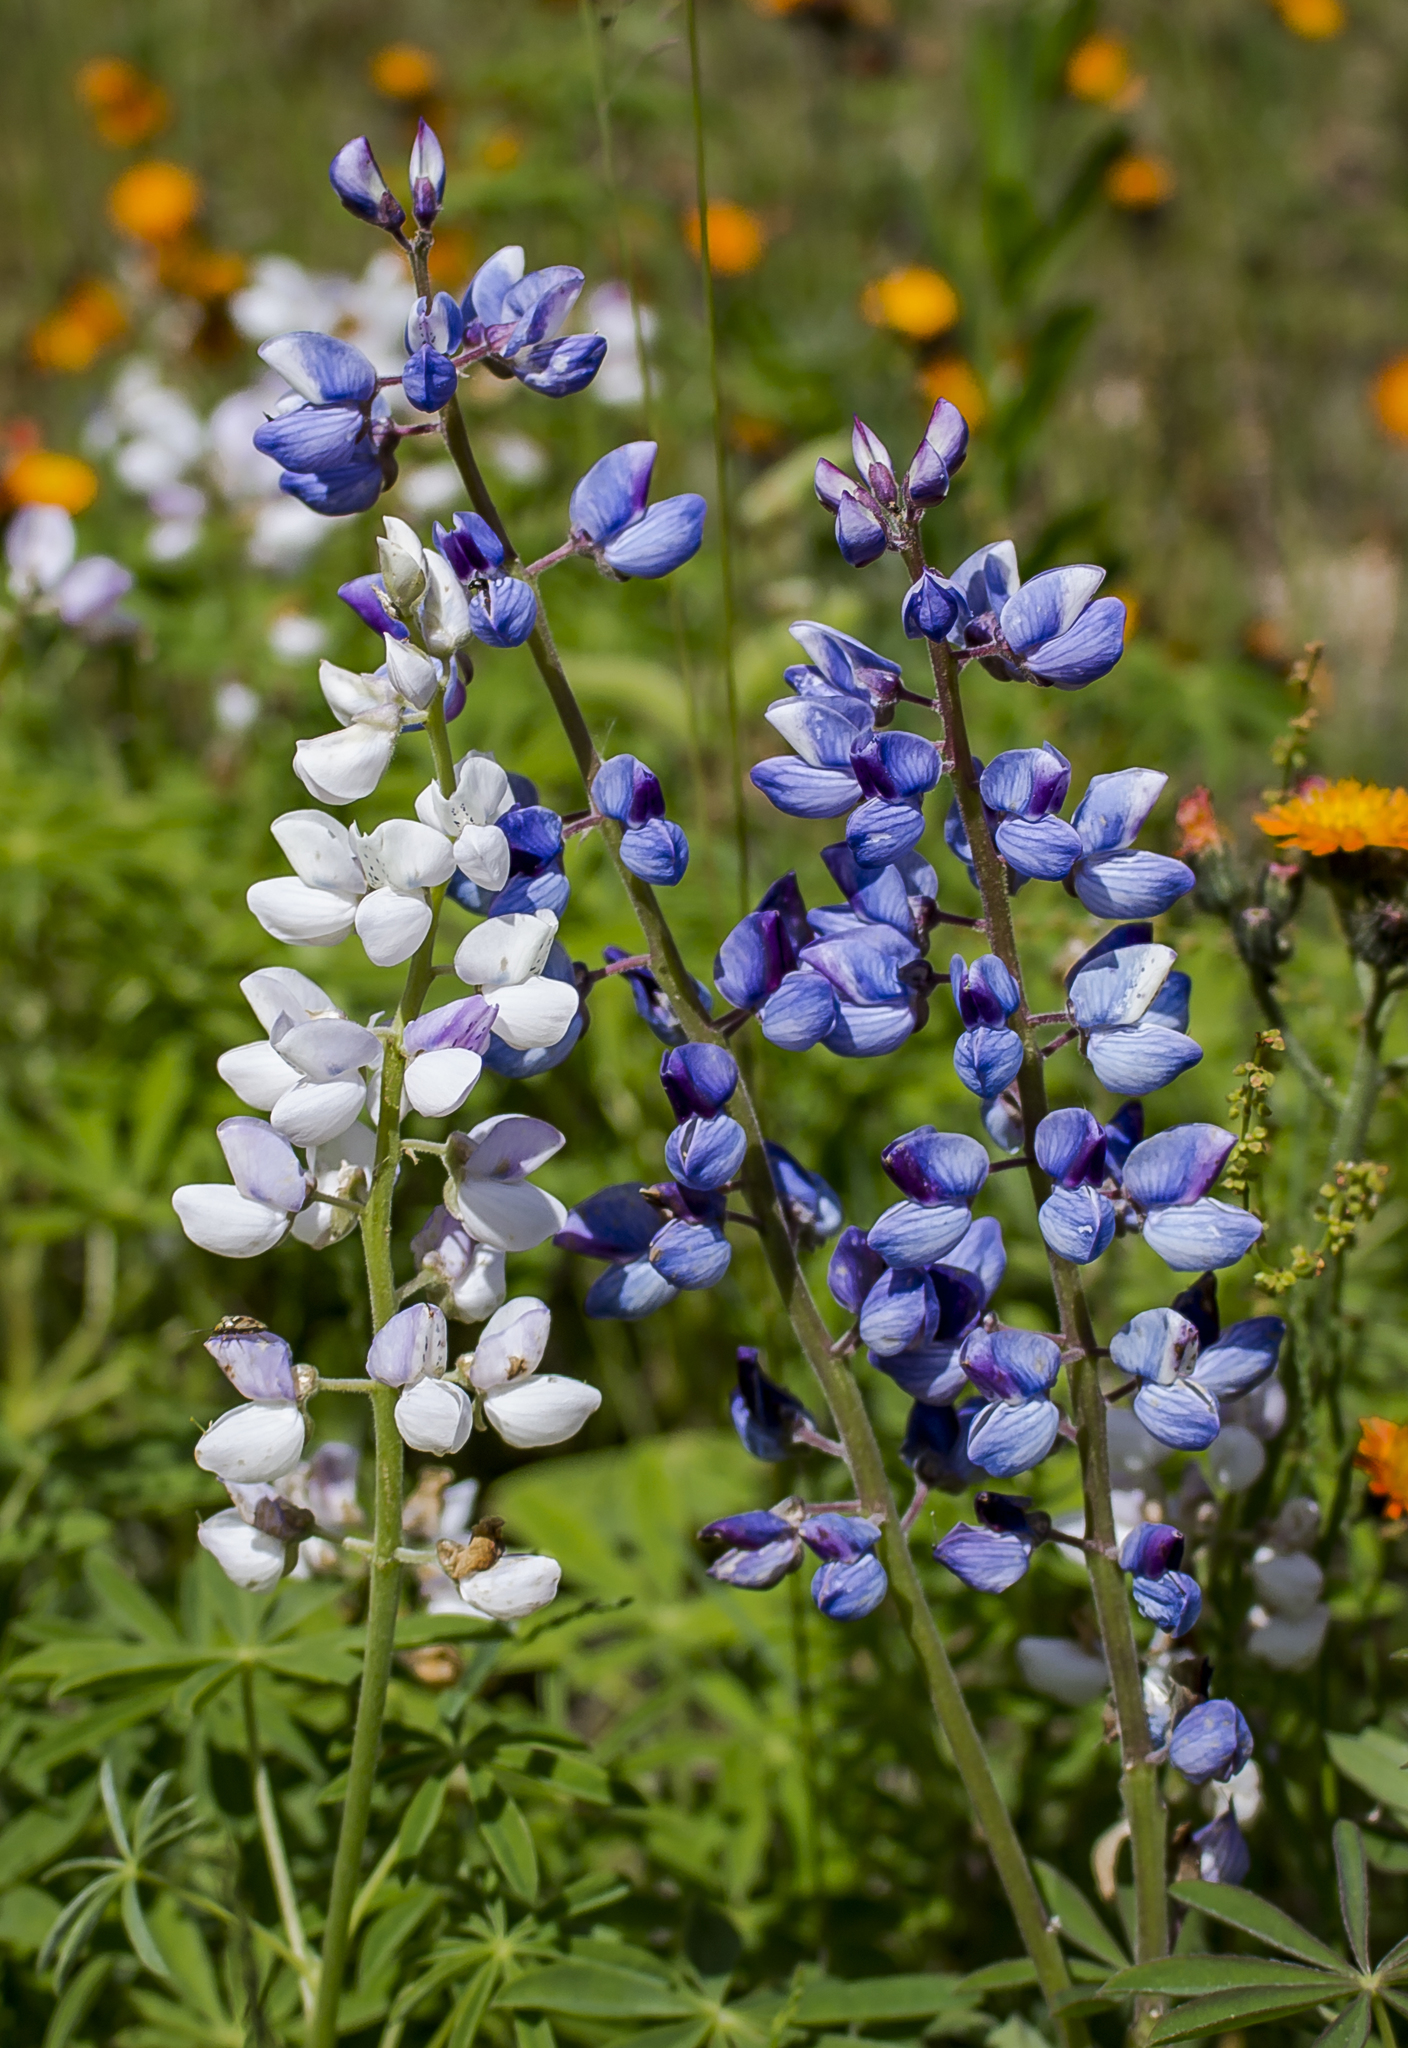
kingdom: Plantae
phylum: Tracheophyta
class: Magnoliopsida
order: Fabales
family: Fabaceae
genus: Lupinus
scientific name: Lupinus perennis
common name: Sundial lupine
